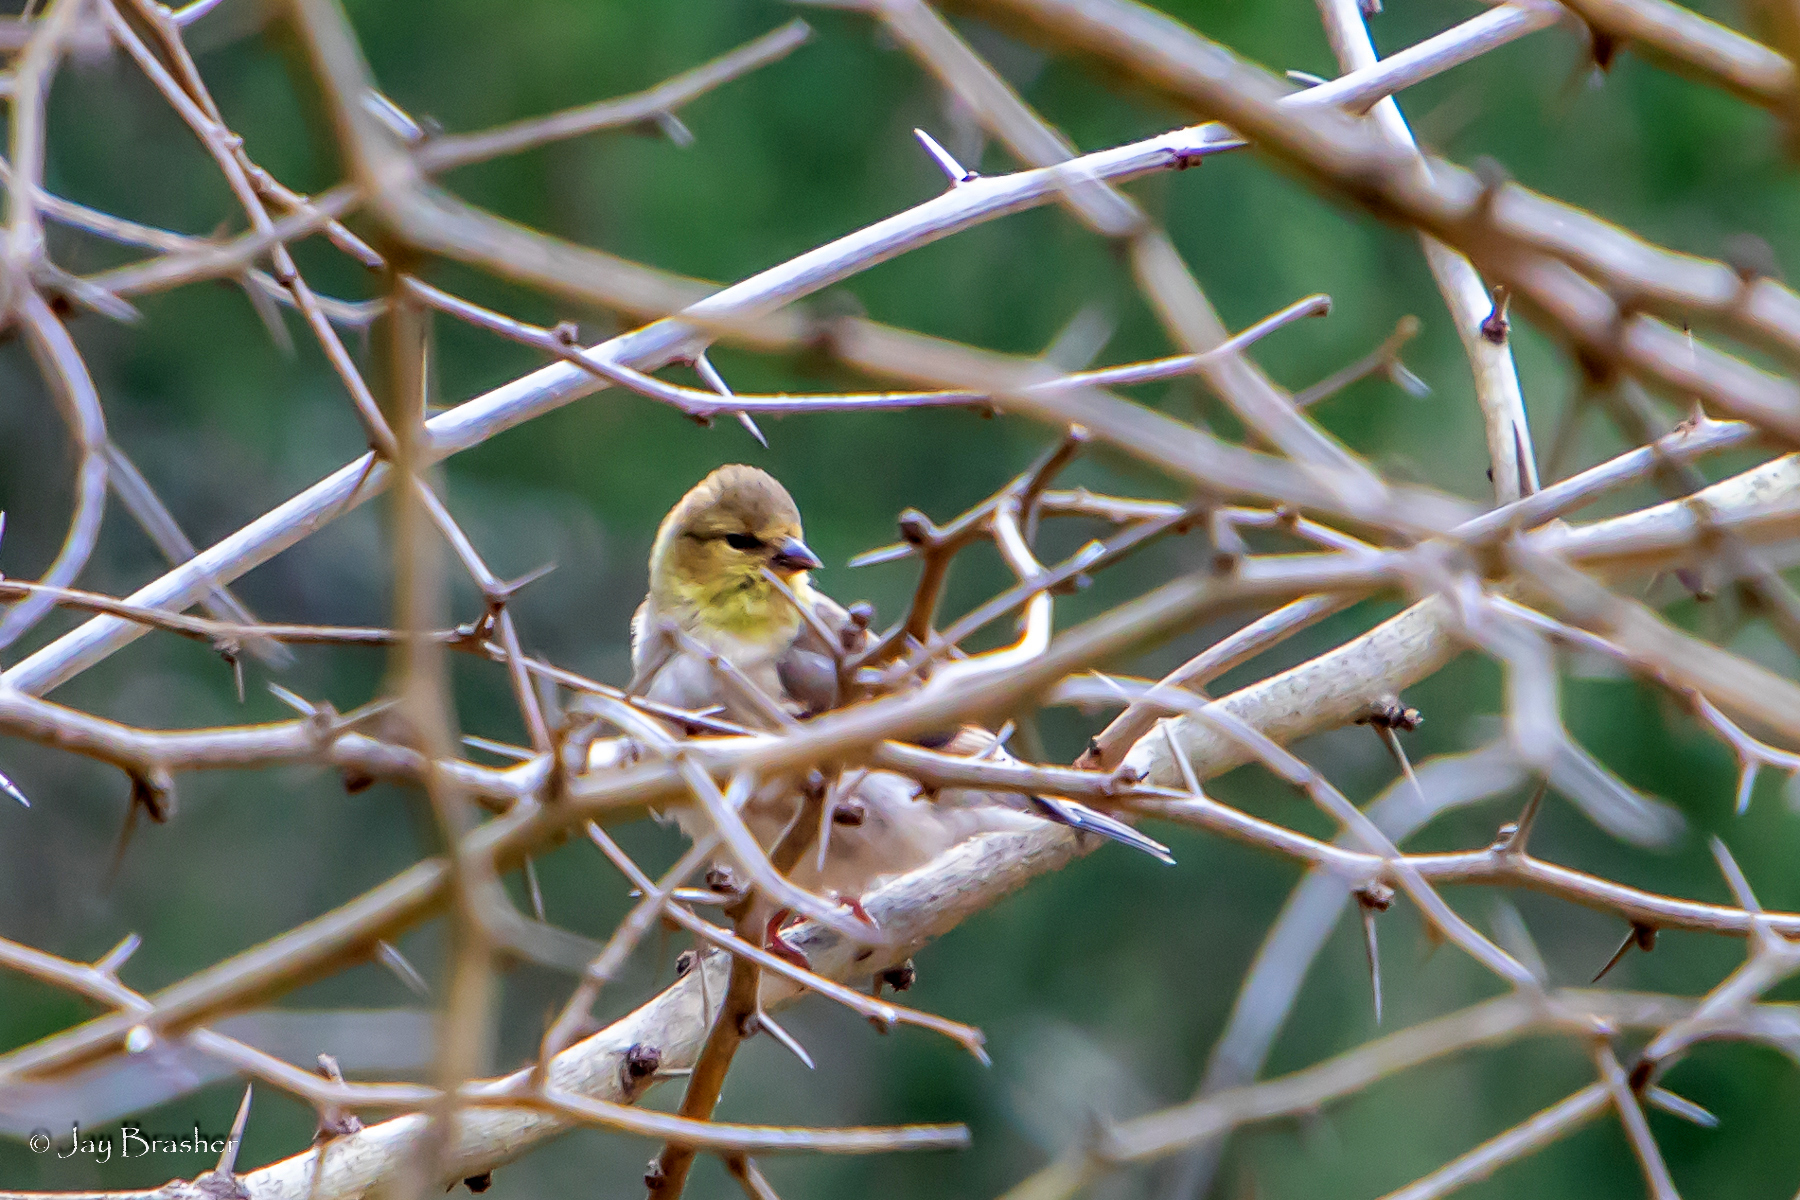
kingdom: Animalia
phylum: Chordata
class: Aves
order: Passeriformes
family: Fringillidae
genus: Spinus
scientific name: Spinus tristis
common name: American goldfinch
